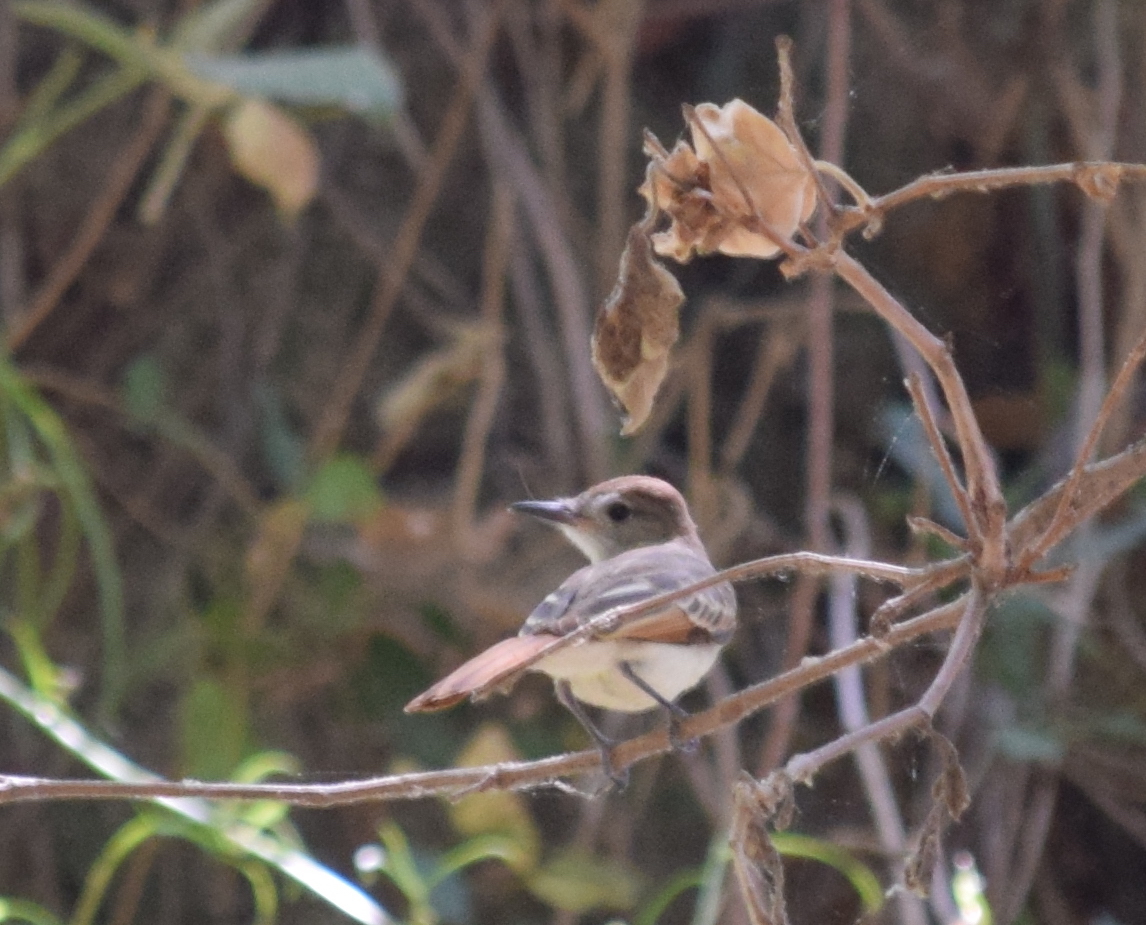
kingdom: Animalia
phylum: Chordata
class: Aves
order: Passeriformes
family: Tyrannidae
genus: Myiarchus
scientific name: Myiarchus cinerascens
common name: Ash-throated flycatcher
